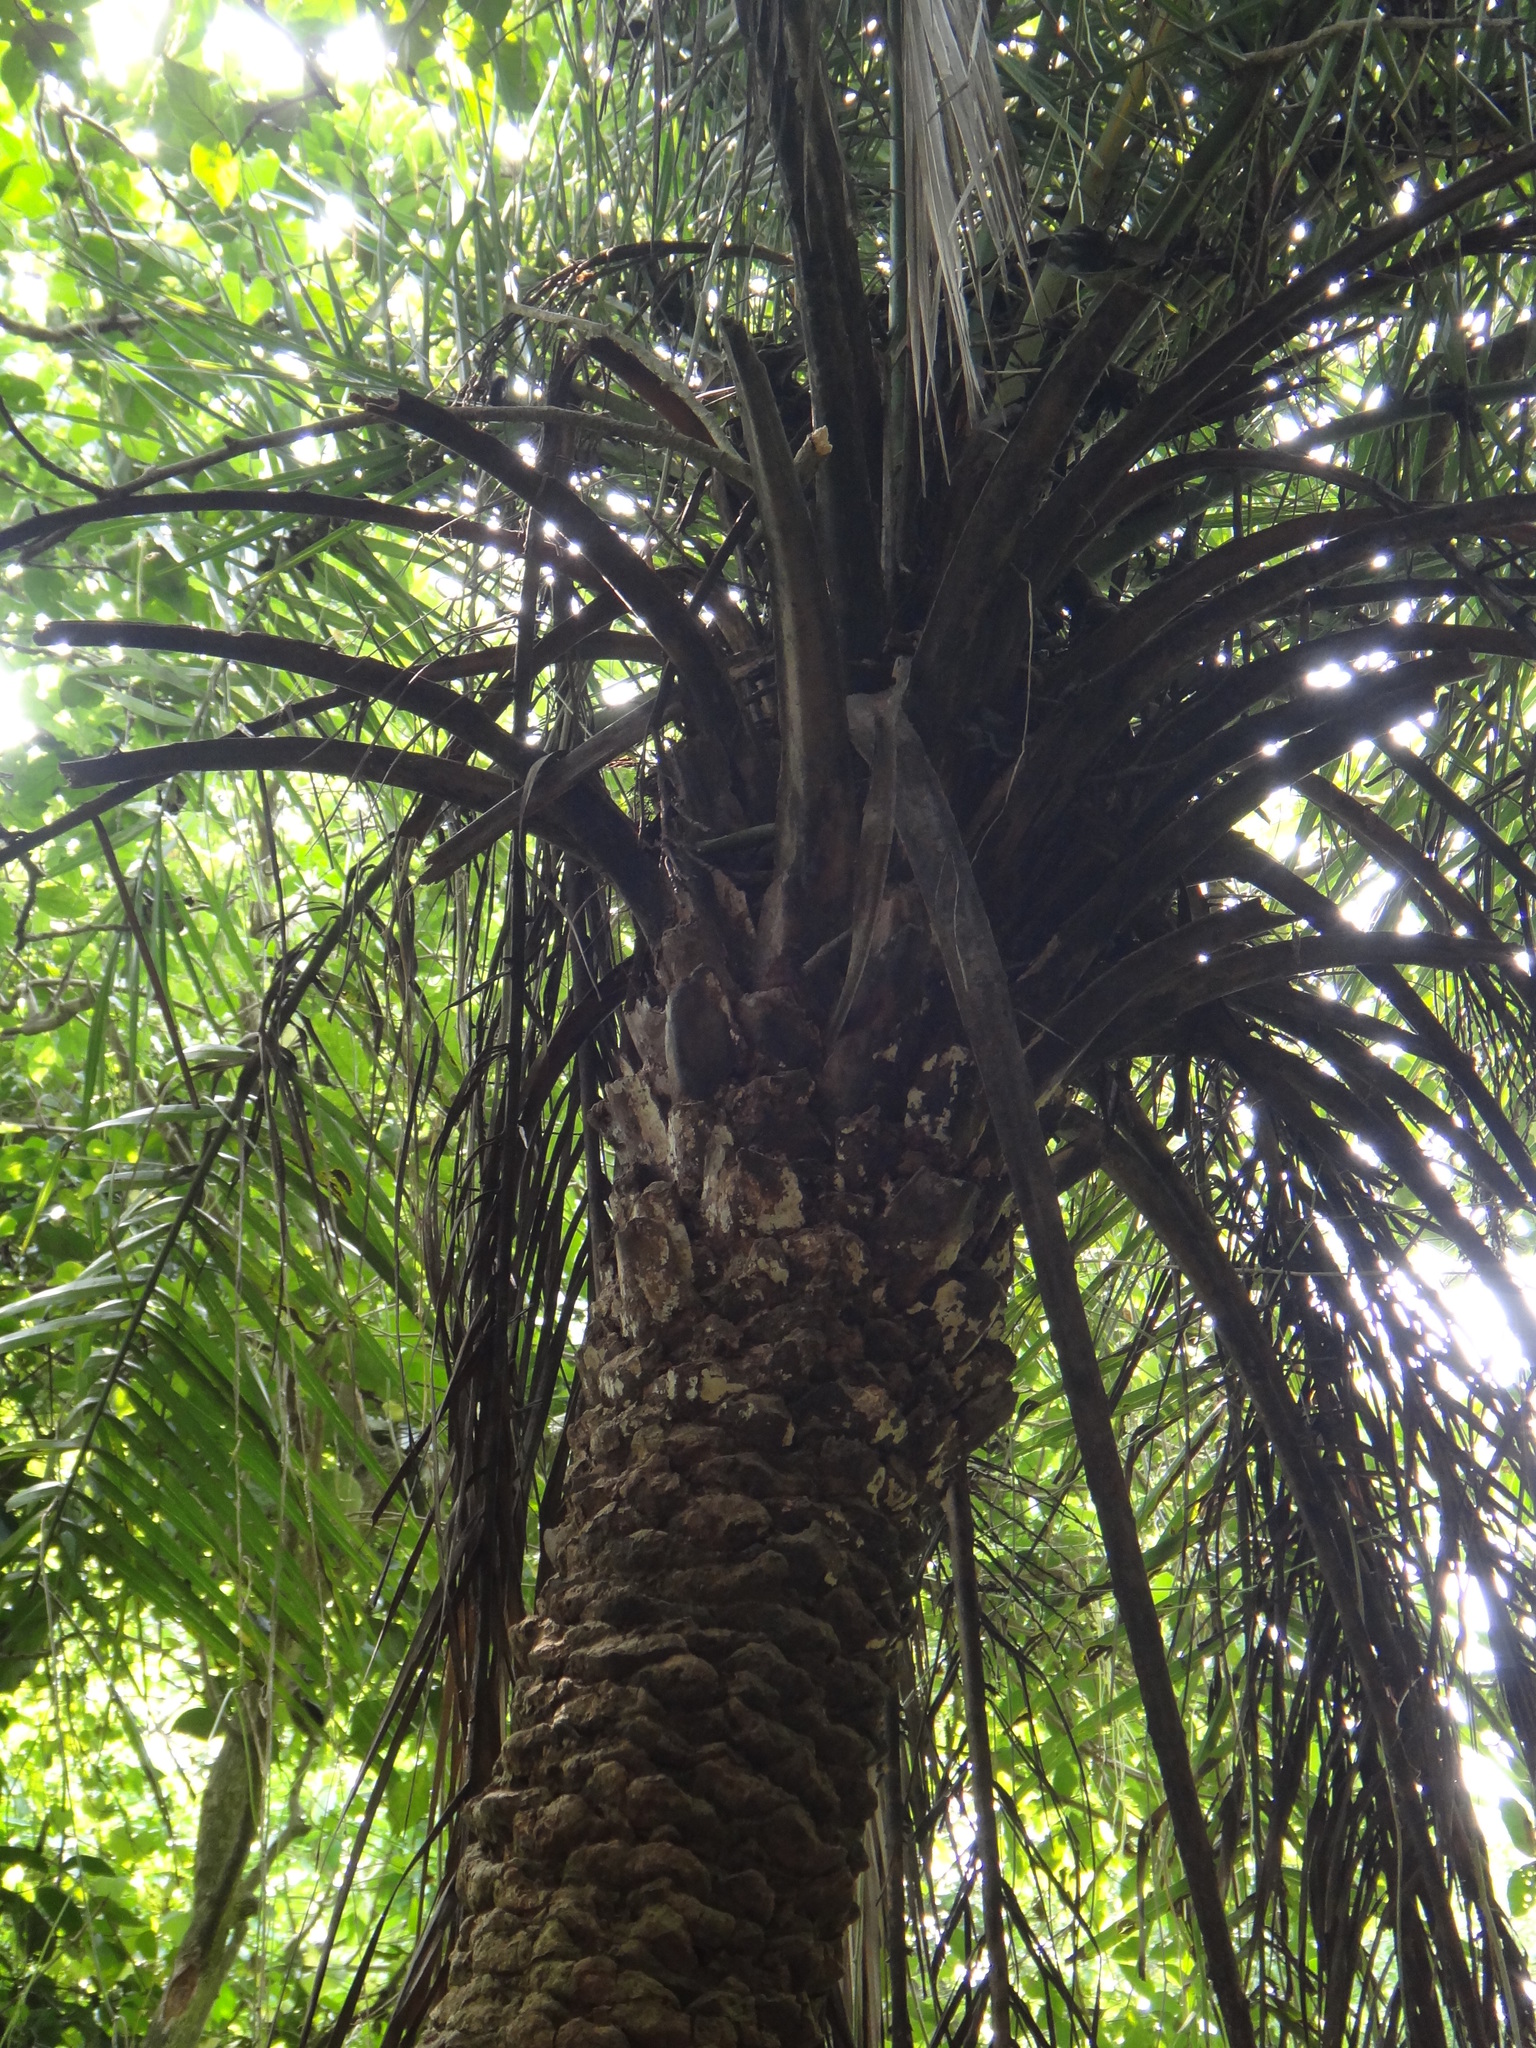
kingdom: Plantae
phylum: Tracheophyta
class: Liliopsida
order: Arecales
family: Arecaceae
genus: Phoenix
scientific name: Phoenix loureiroi
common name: Loureiro's palm
